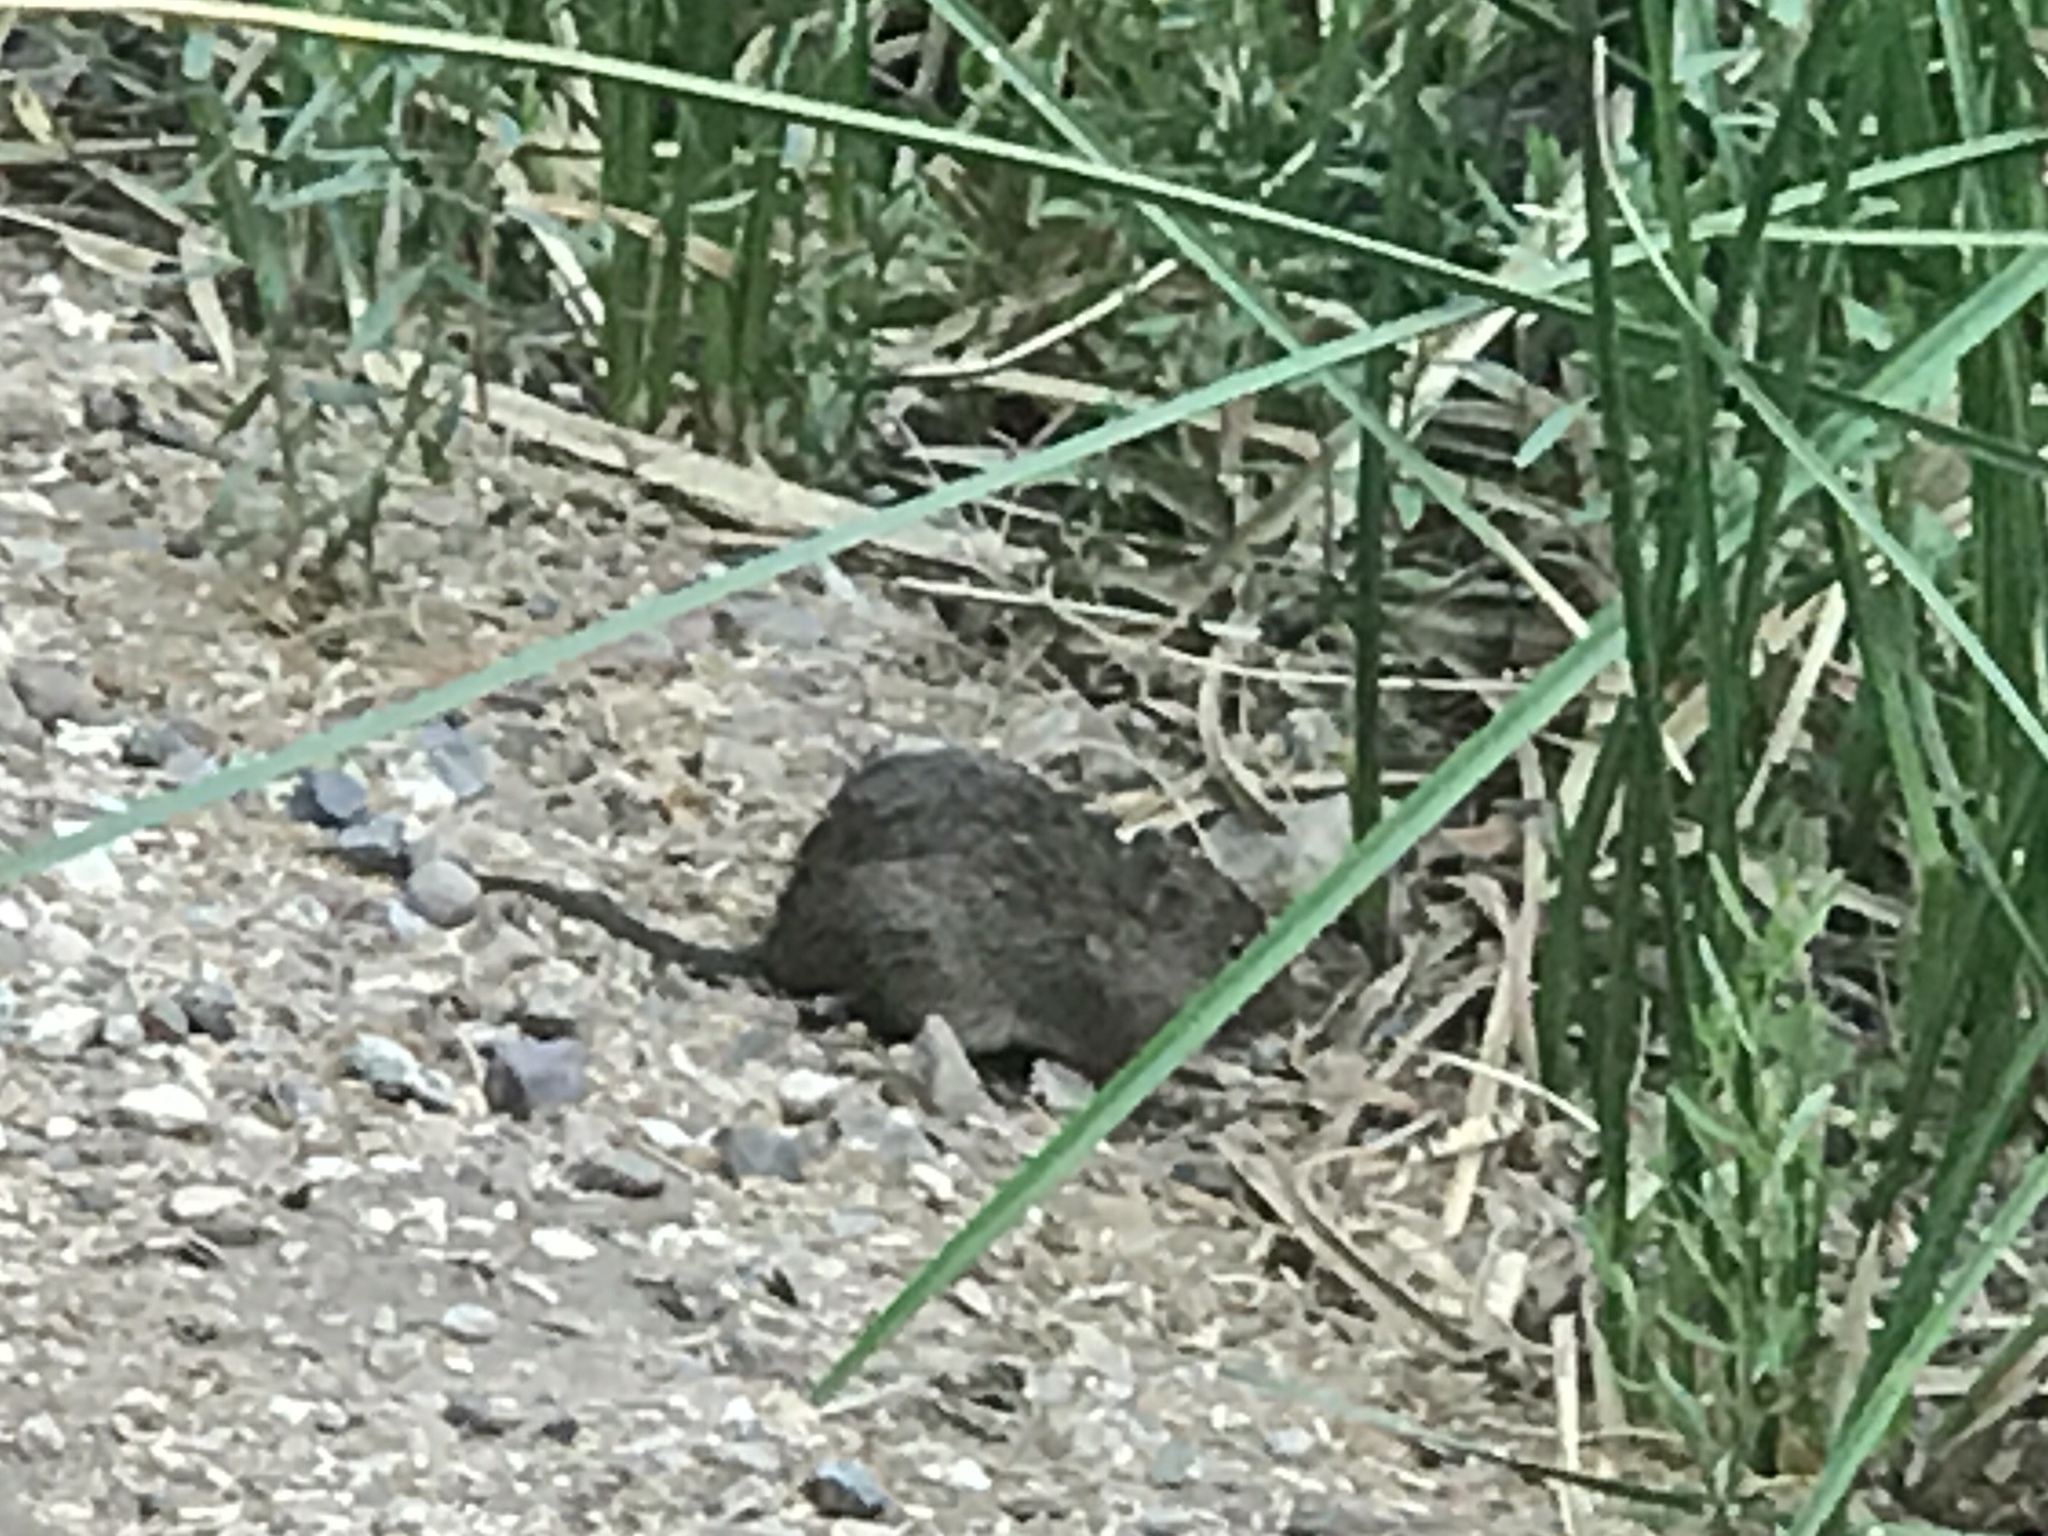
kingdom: Animalia
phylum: Chordata
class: Mammalia
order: Rodentia
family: Cricetidae
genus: Sigmodon
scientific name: Sigmodon arizonae
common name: Arizona cotton rat
